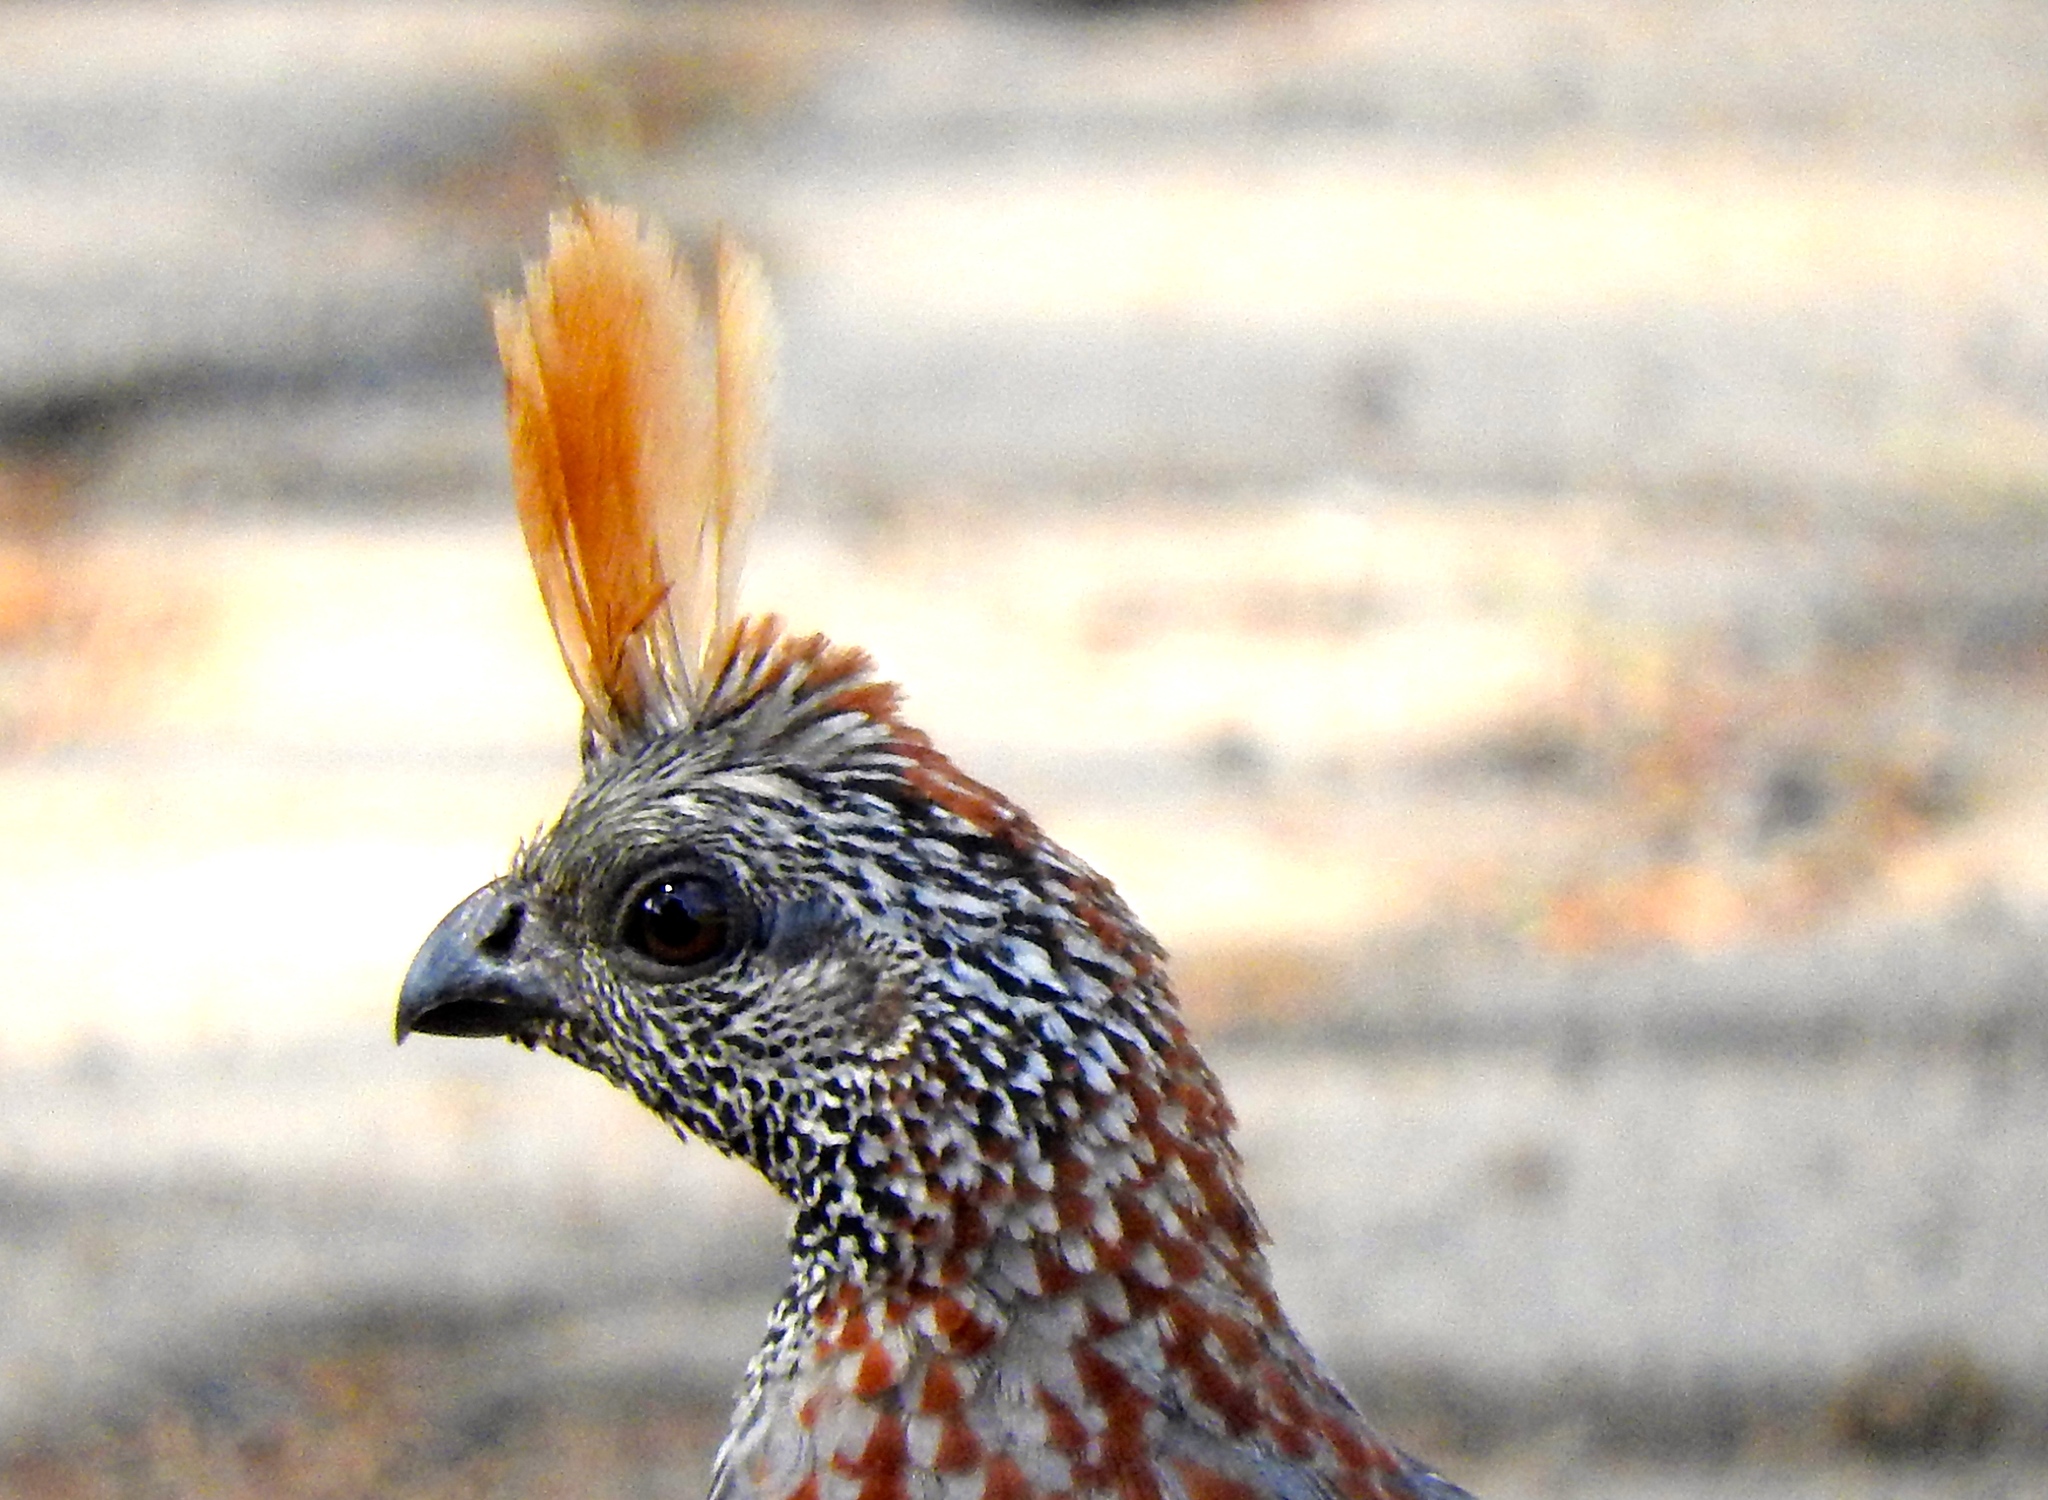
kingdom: Animalia
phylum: Chordata
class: Aves
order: Galliformes
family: Odontophoridae
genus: Callipepla
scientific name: Callipepla douglasii
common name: Elegant quail
